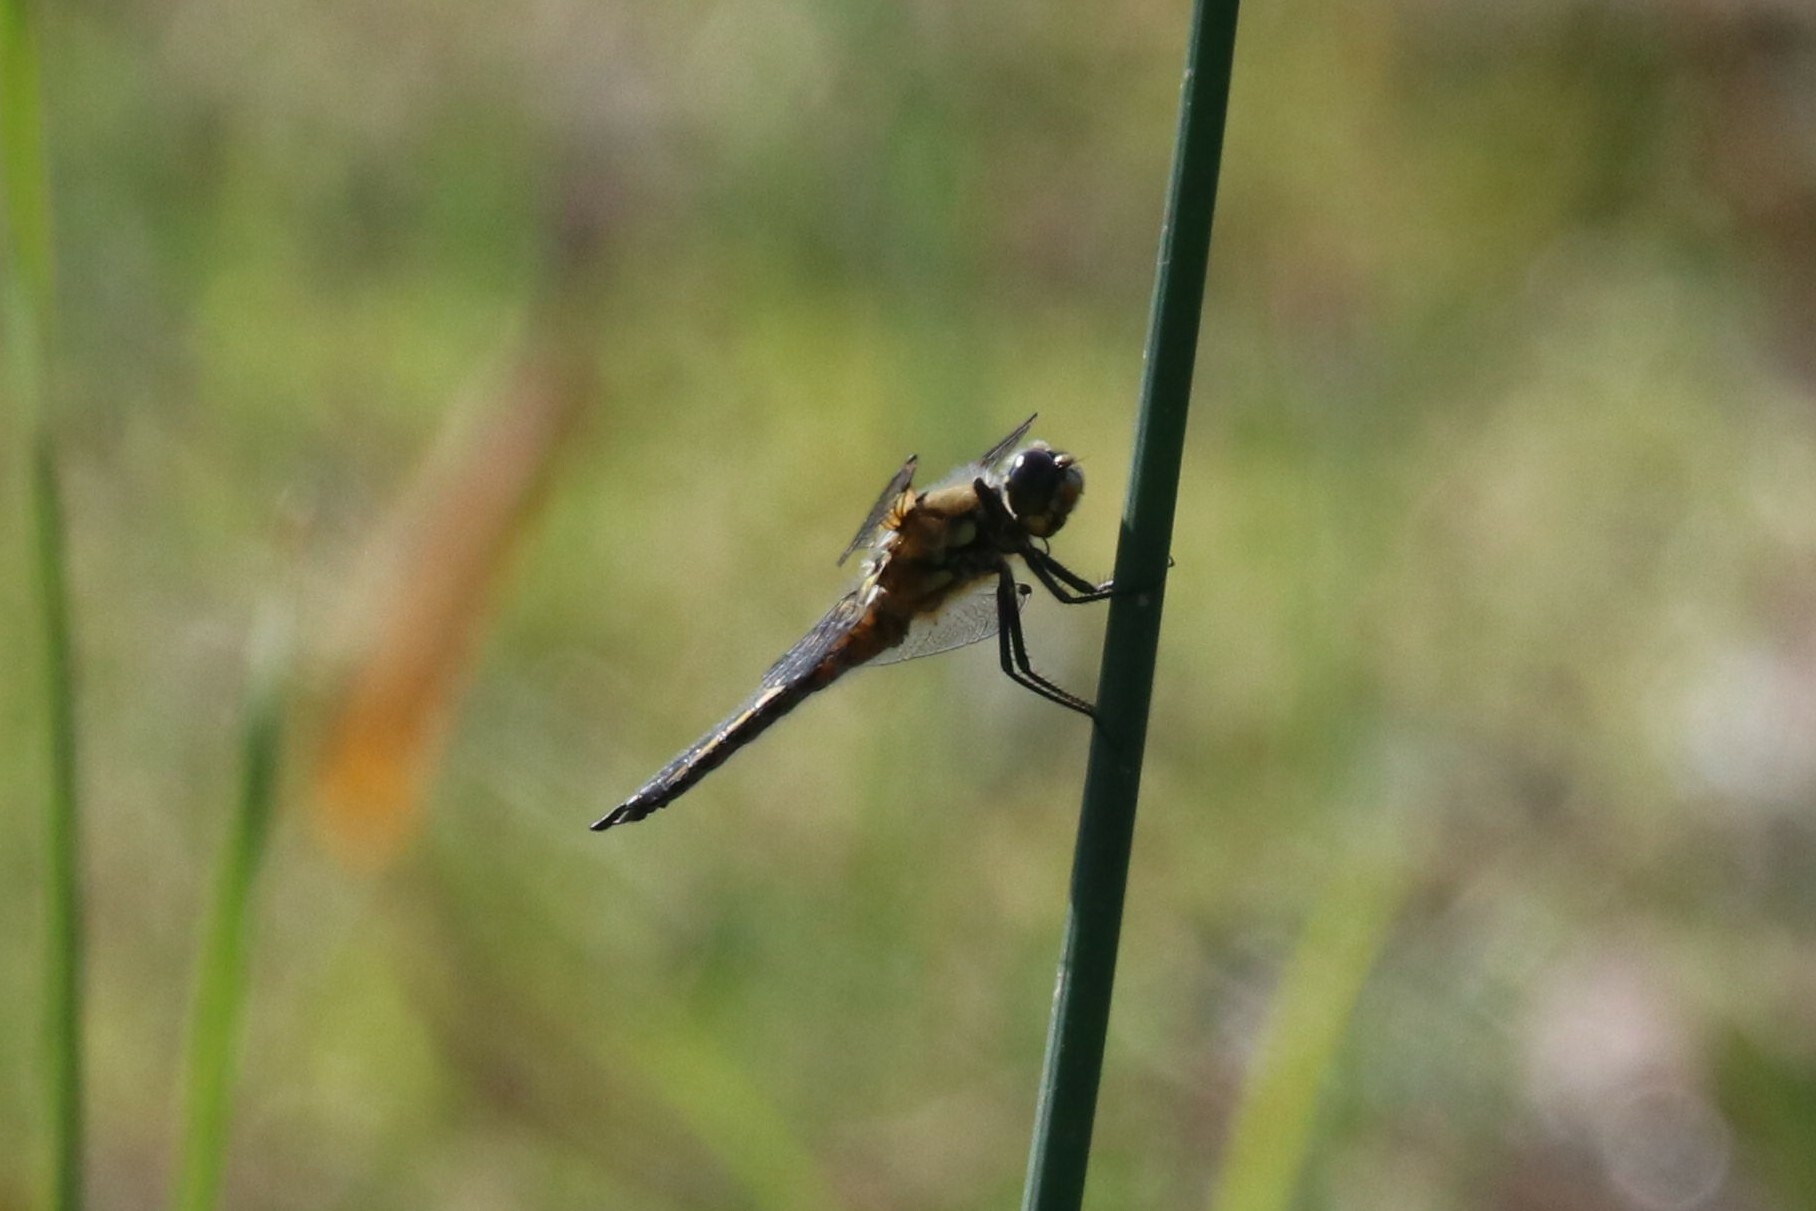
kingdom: Animalia
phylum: Arthropoda
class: Insecta
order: Odonata
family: Libellulidae
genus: Libellula
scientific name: Libellula quadrimaculata
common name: Four-spotted chaser
